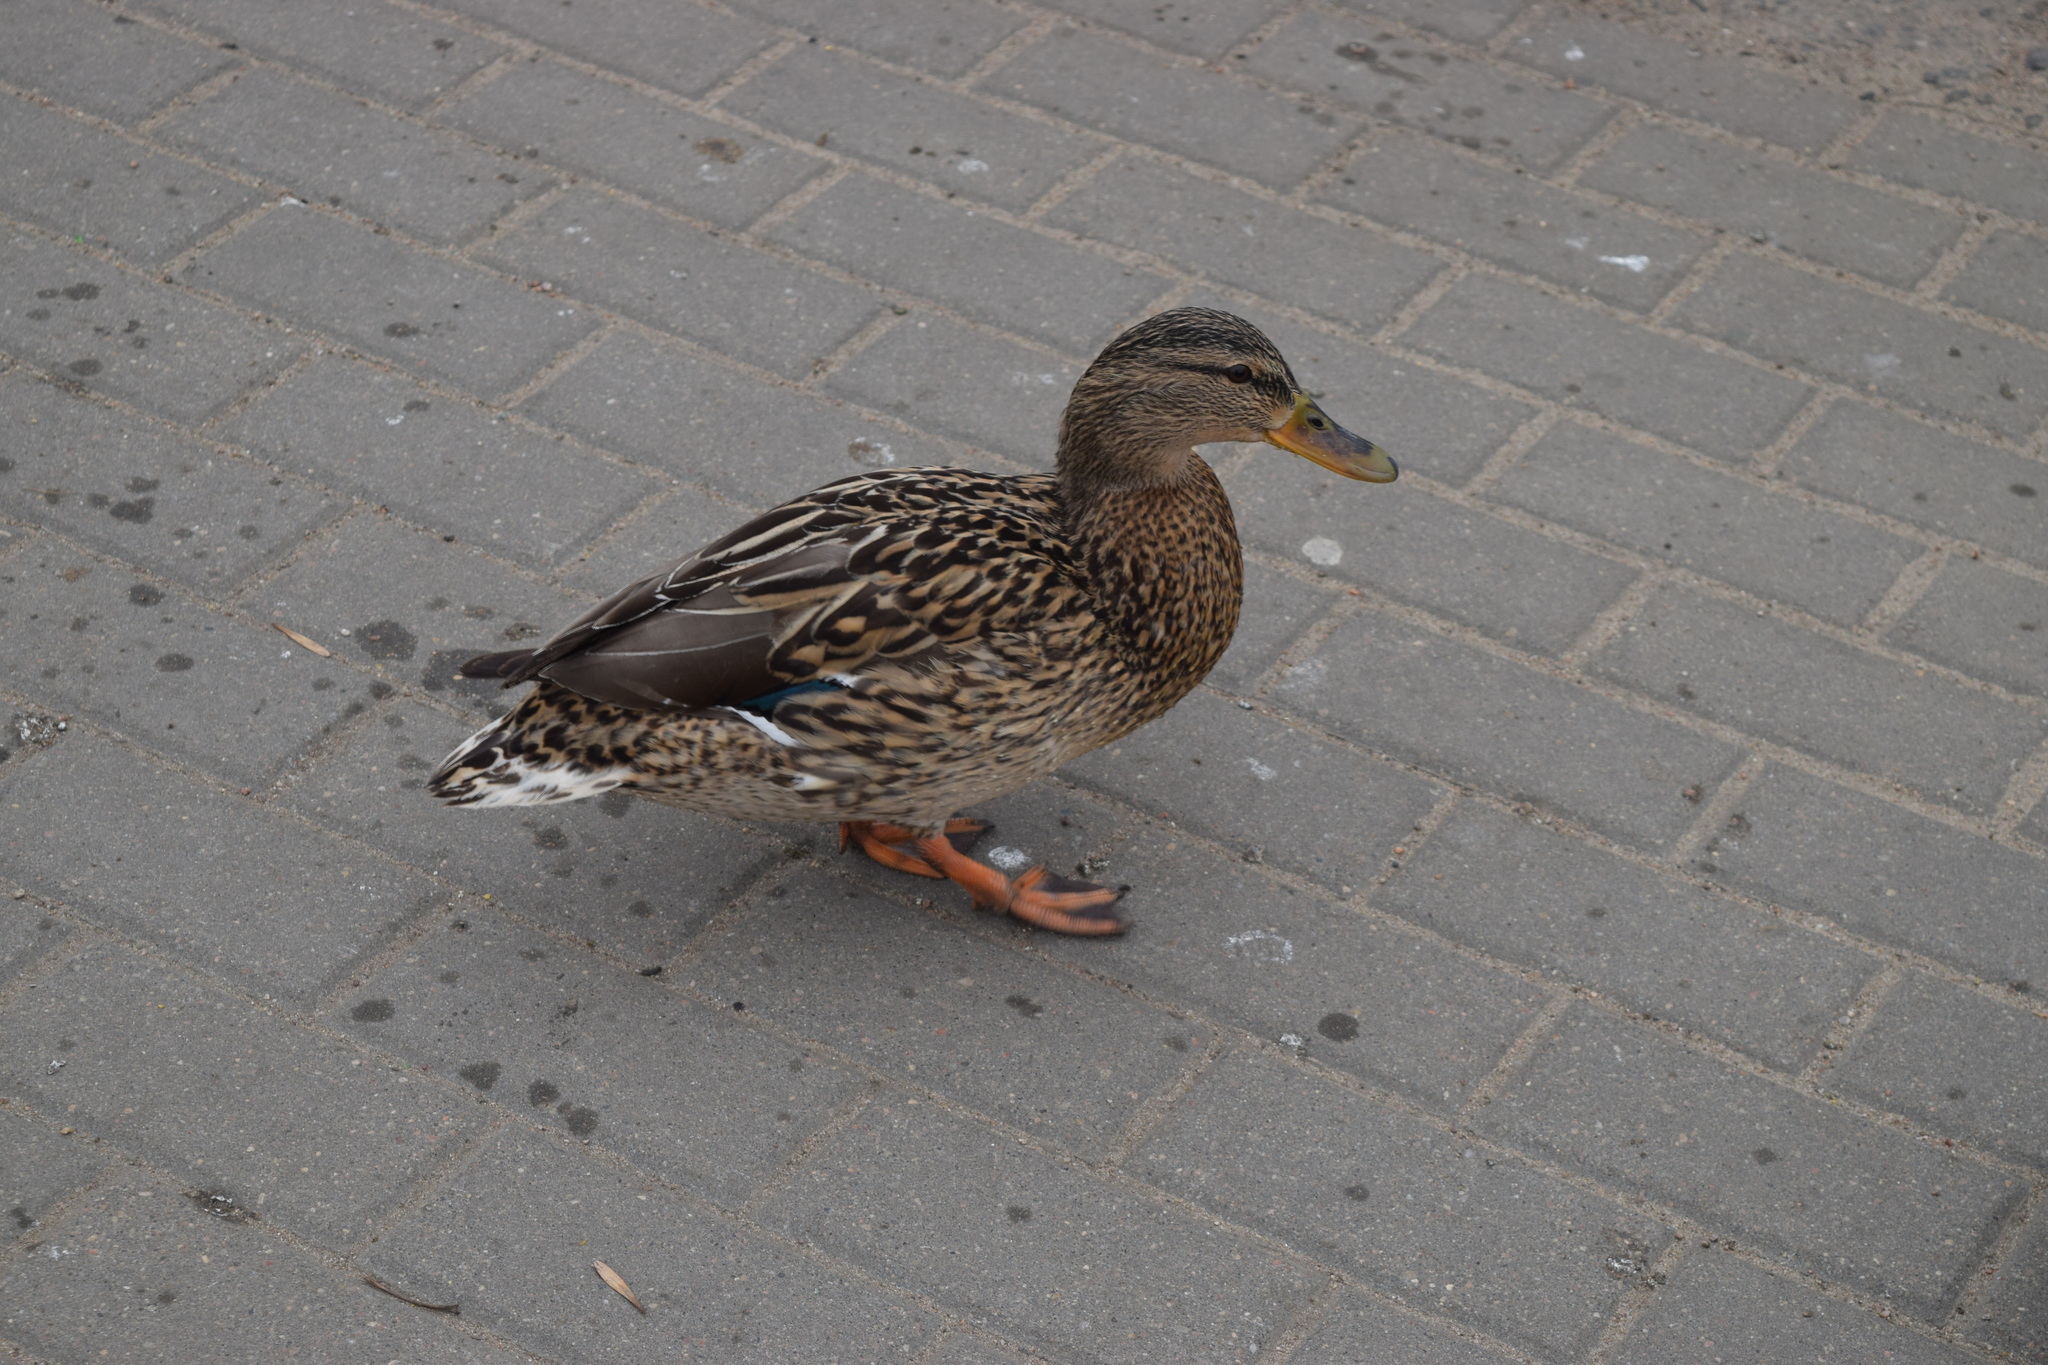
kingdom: Animalia
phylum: Chordata
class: Aves
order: Anseriformes
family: Anatidae
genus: Anas
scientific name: Anas platyrhynchos
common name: Mallard
